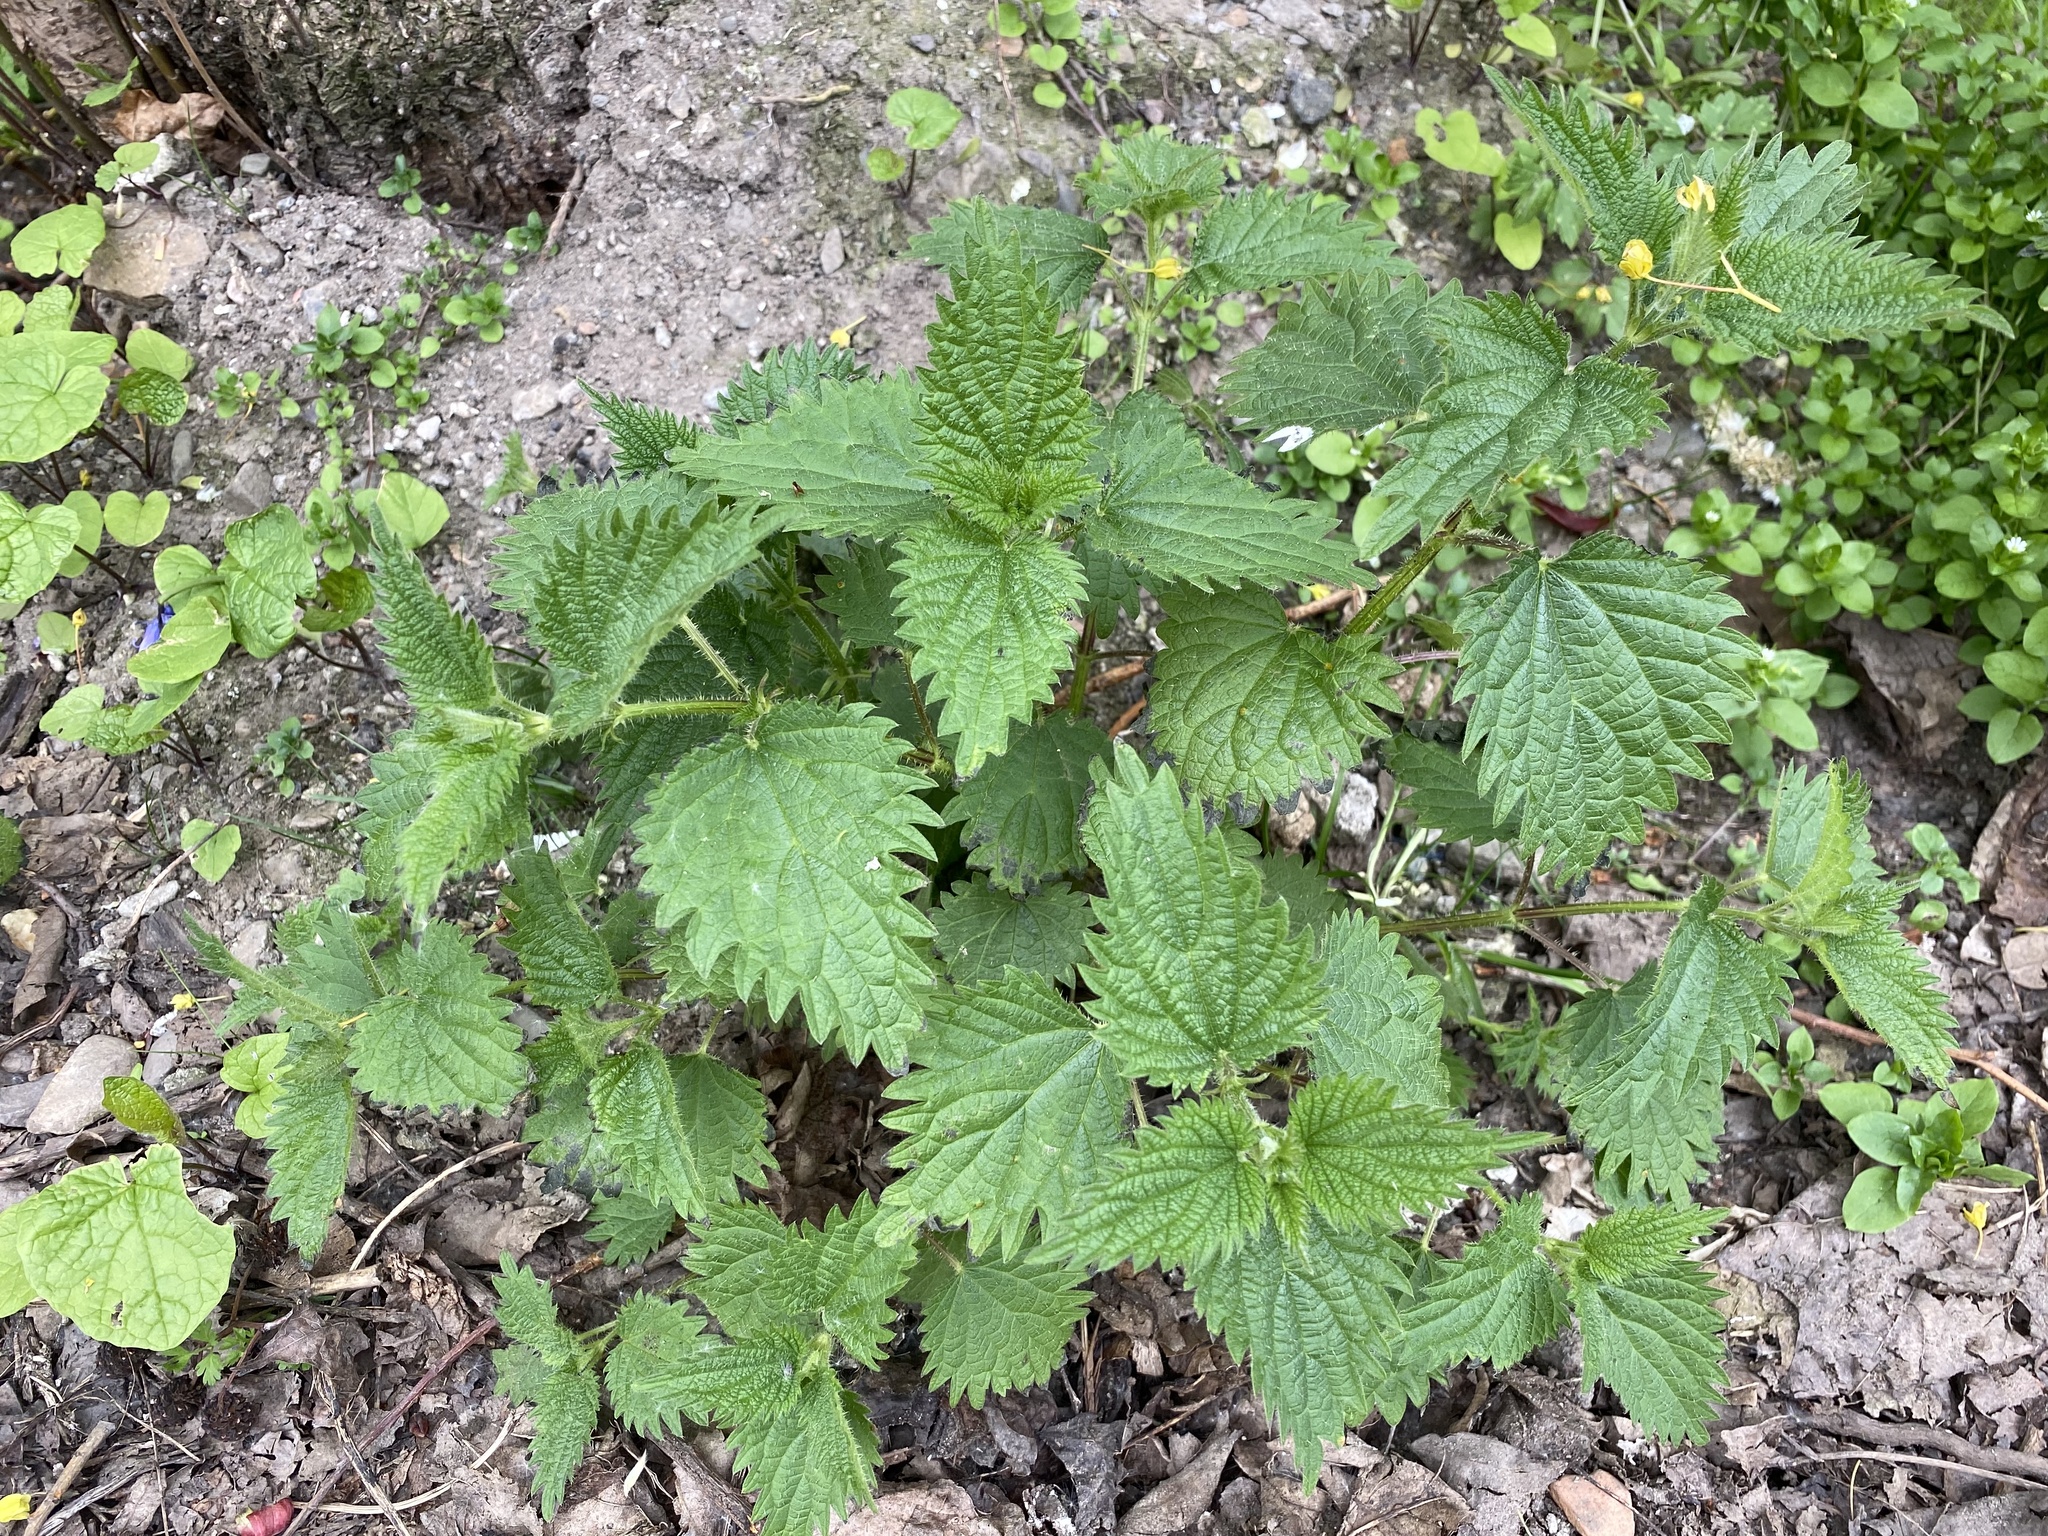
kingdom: Plantae
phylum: Tracheophyta
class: Magnoliopsida
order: Rosales
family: Urticaceae
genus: Urtica
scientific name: Urtica dioica
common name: Common nettle
